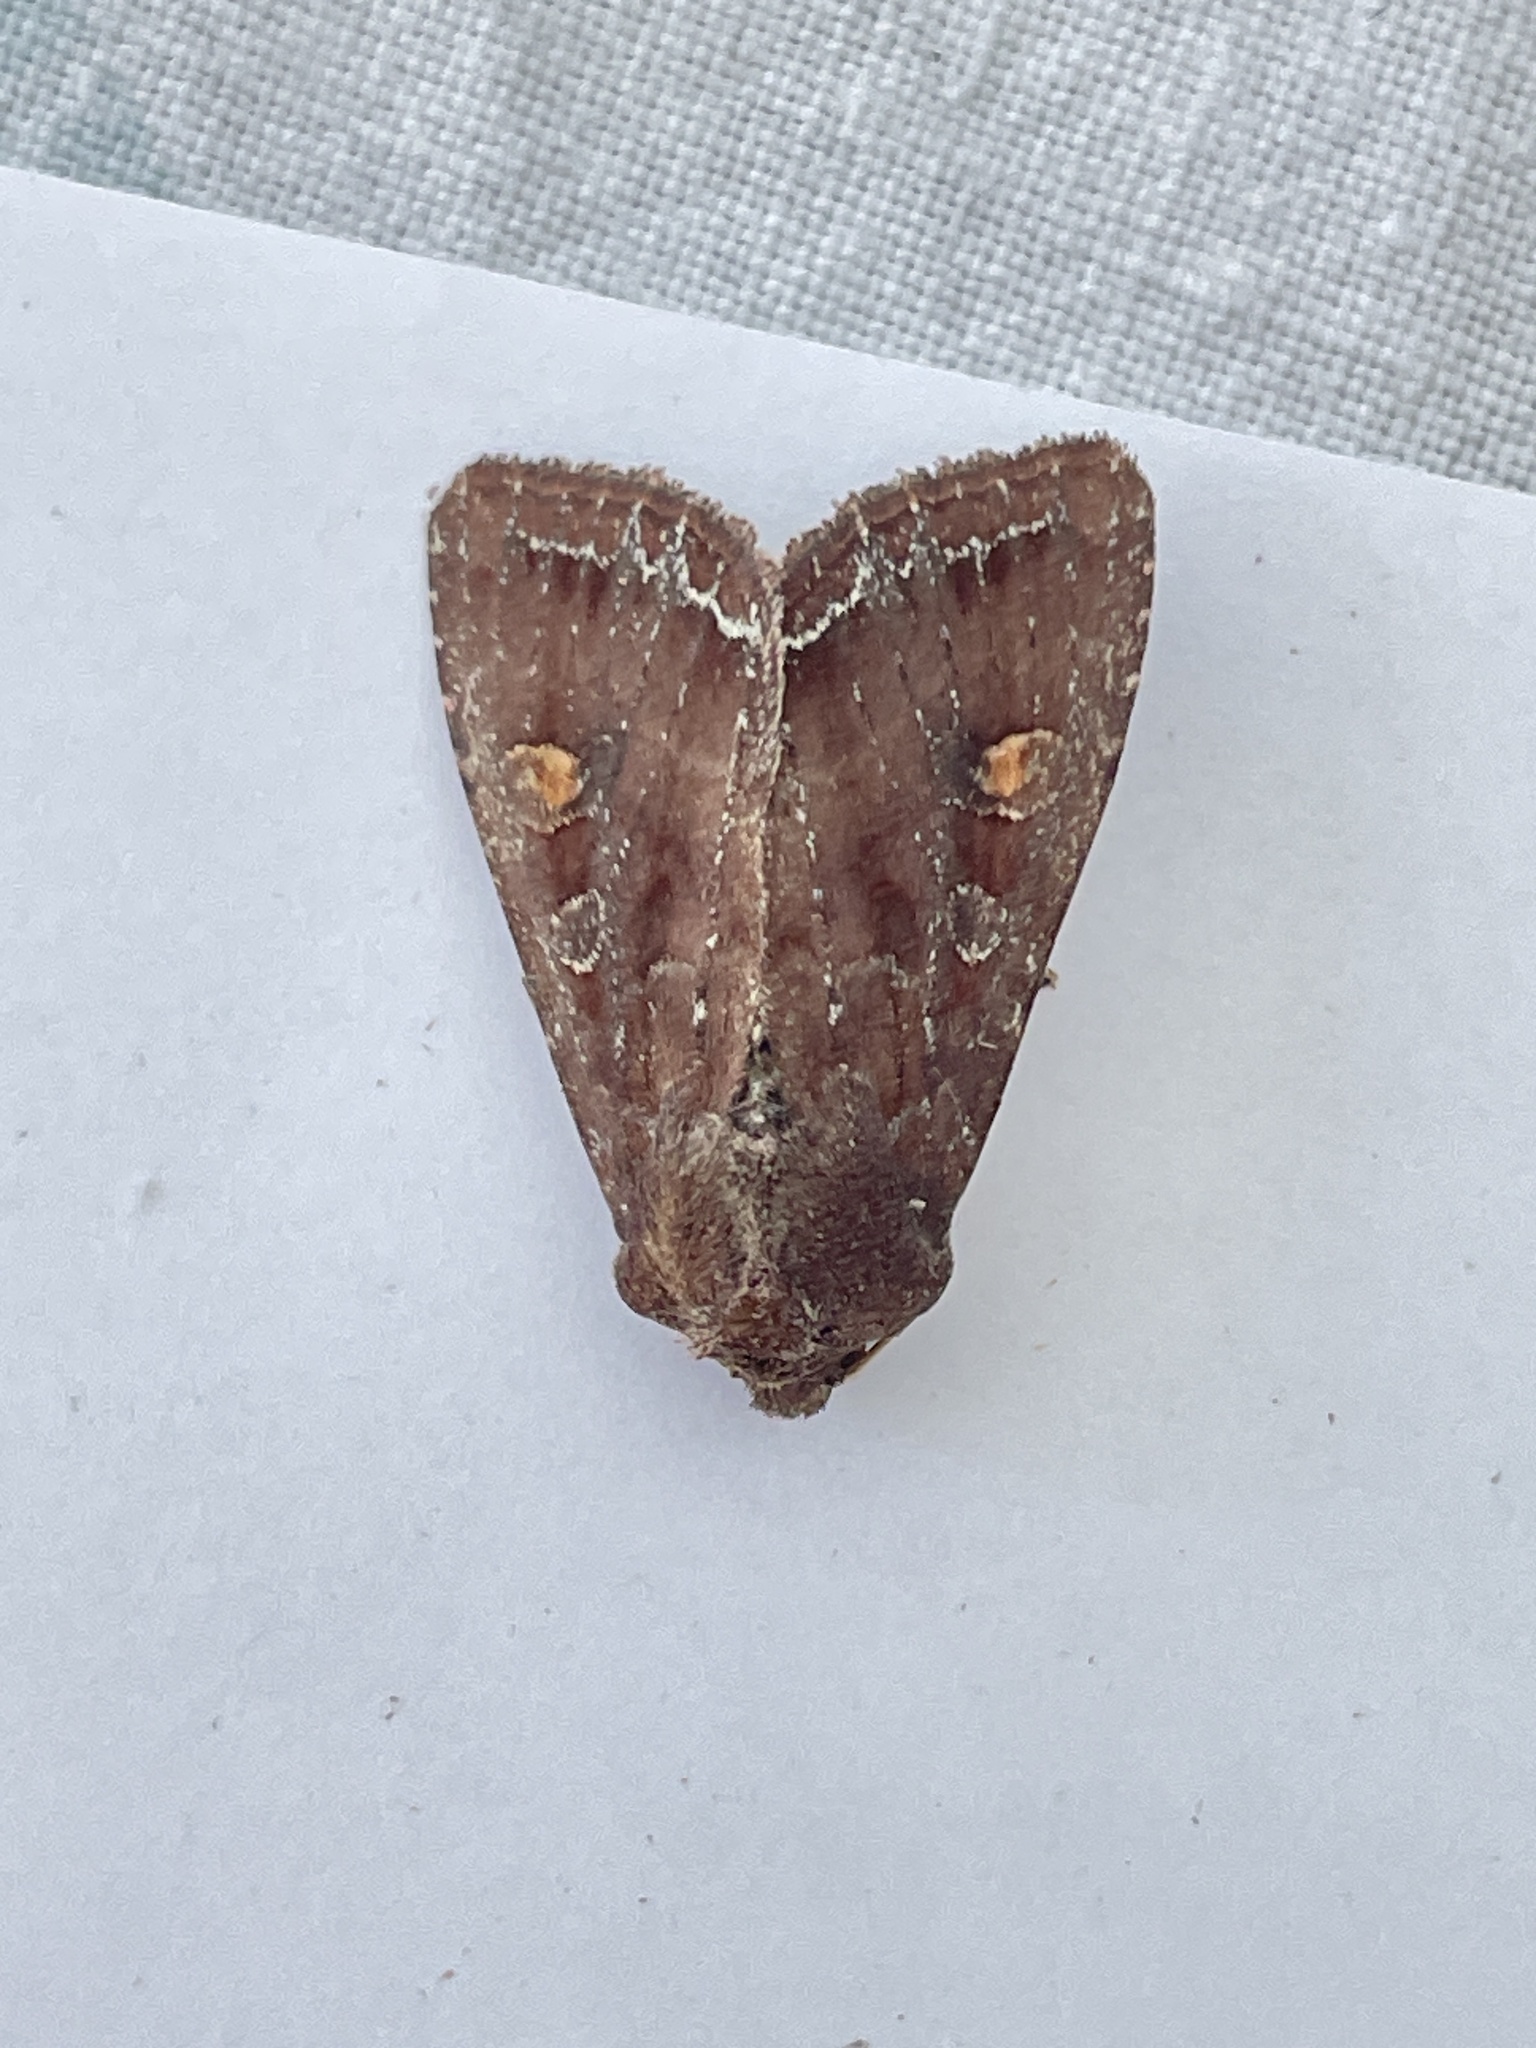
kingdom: Animalia
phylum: Arthropoda
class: Insecta
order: Lepidoptera
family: Noctuidae
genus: Lacanobia
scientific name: Lacanobia oleracea
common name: Bright-line brown-eye
